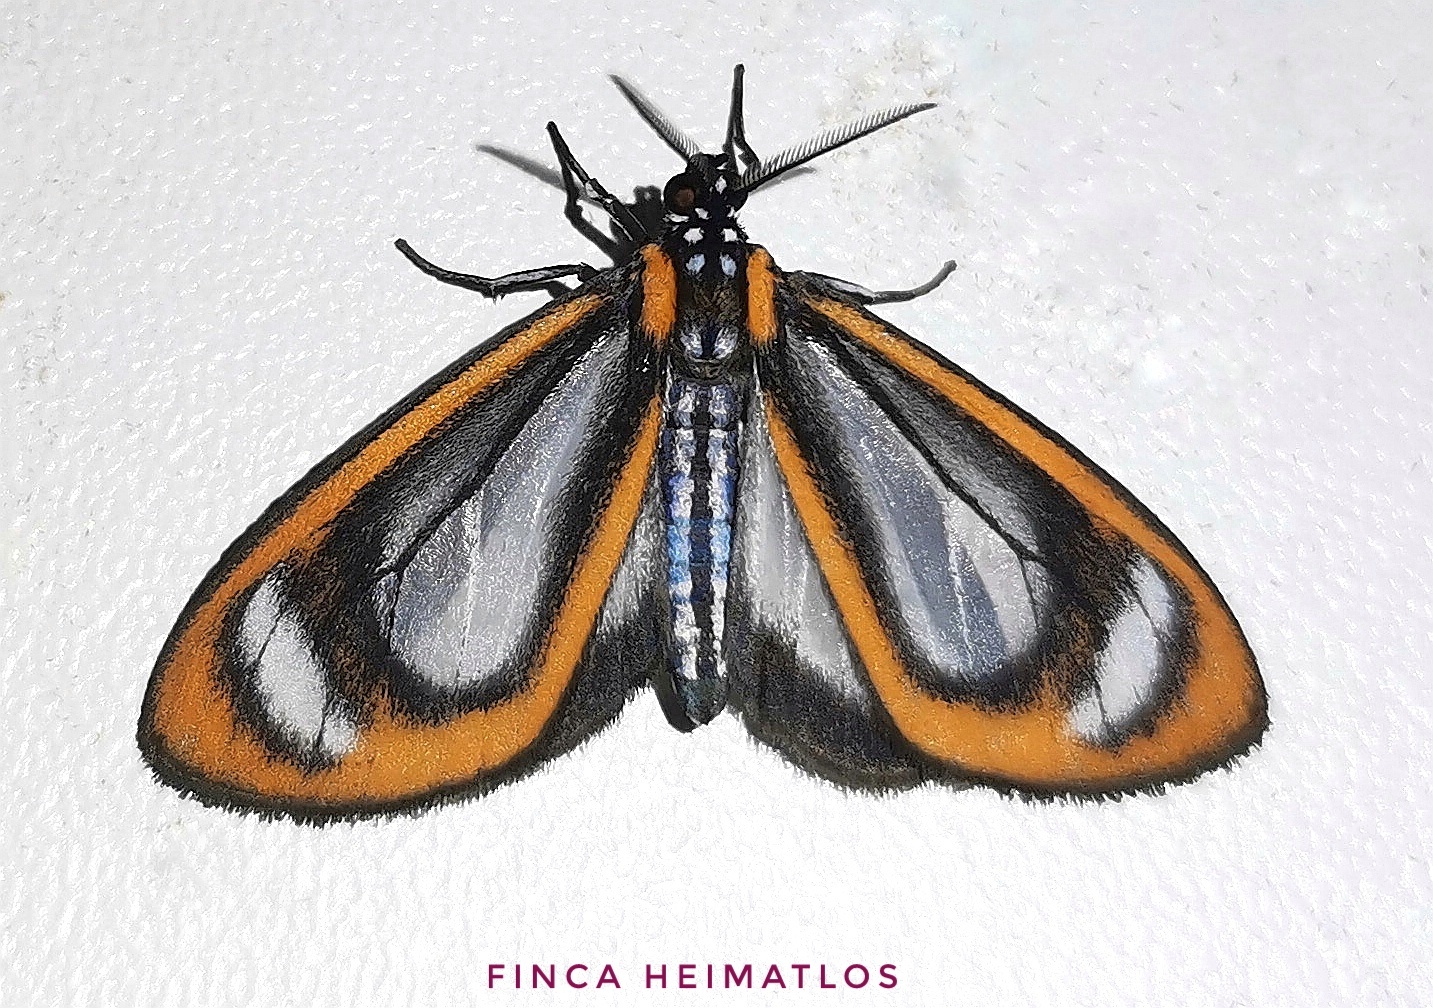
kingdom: Animalia
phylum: Arthropoda
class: Insecta
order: Lepidoptera
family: Erebidae
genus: Hyalurga
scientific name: Hyalurga leucophlebia
